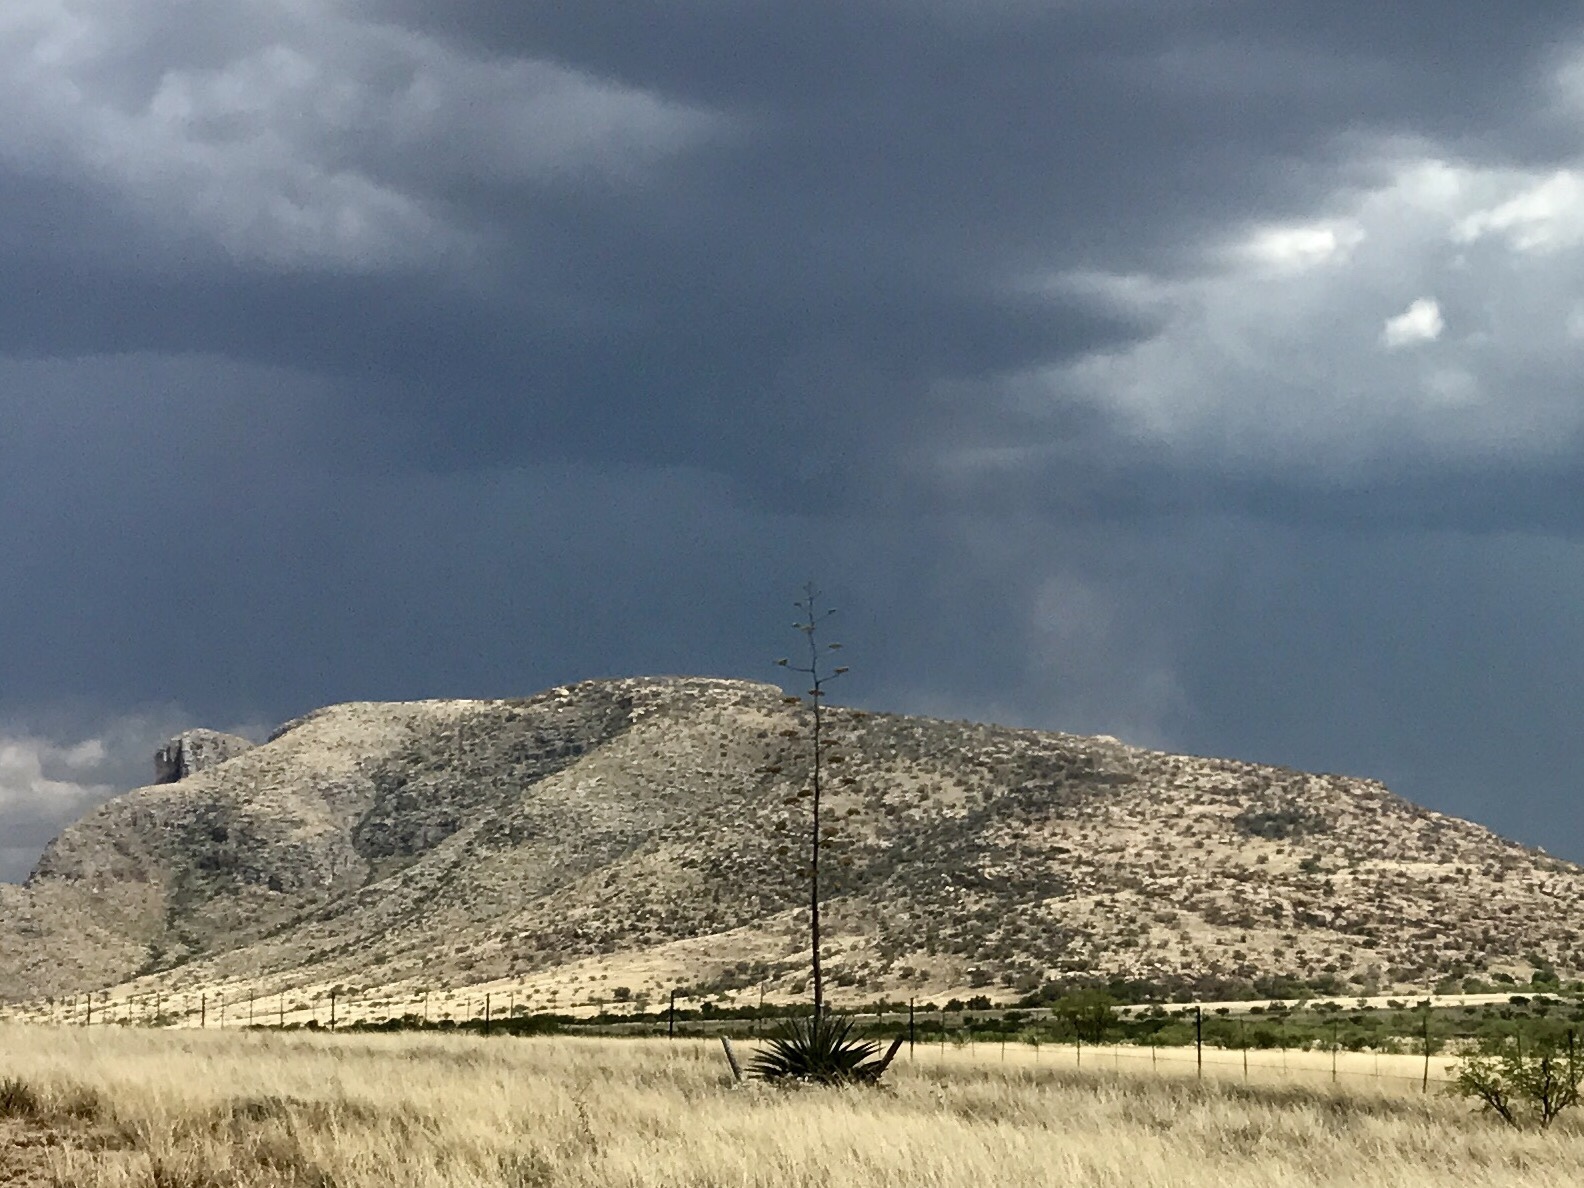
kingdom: Plantae
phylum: Tracheophyta
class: Liliopsida
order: Asparagales
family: Asparagaceae
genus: Agave
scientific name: Agave palmeri
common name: Palmer agave
